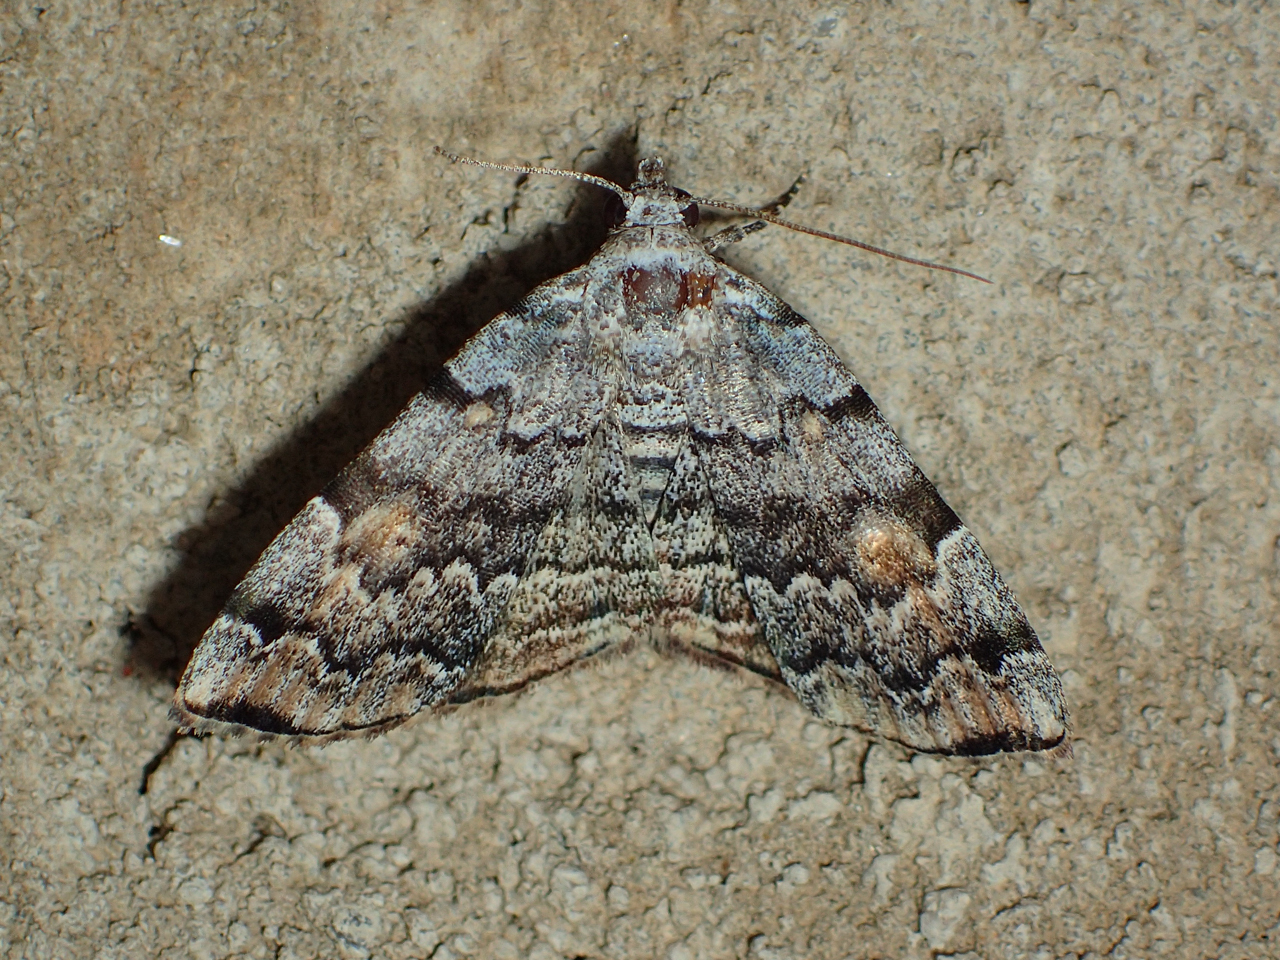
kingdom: Animalia
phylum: Arthropoda
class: Insecta
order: Lepidoptera
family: Erebidae
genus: Idia
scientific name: Idia americalis
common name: American idia moth
